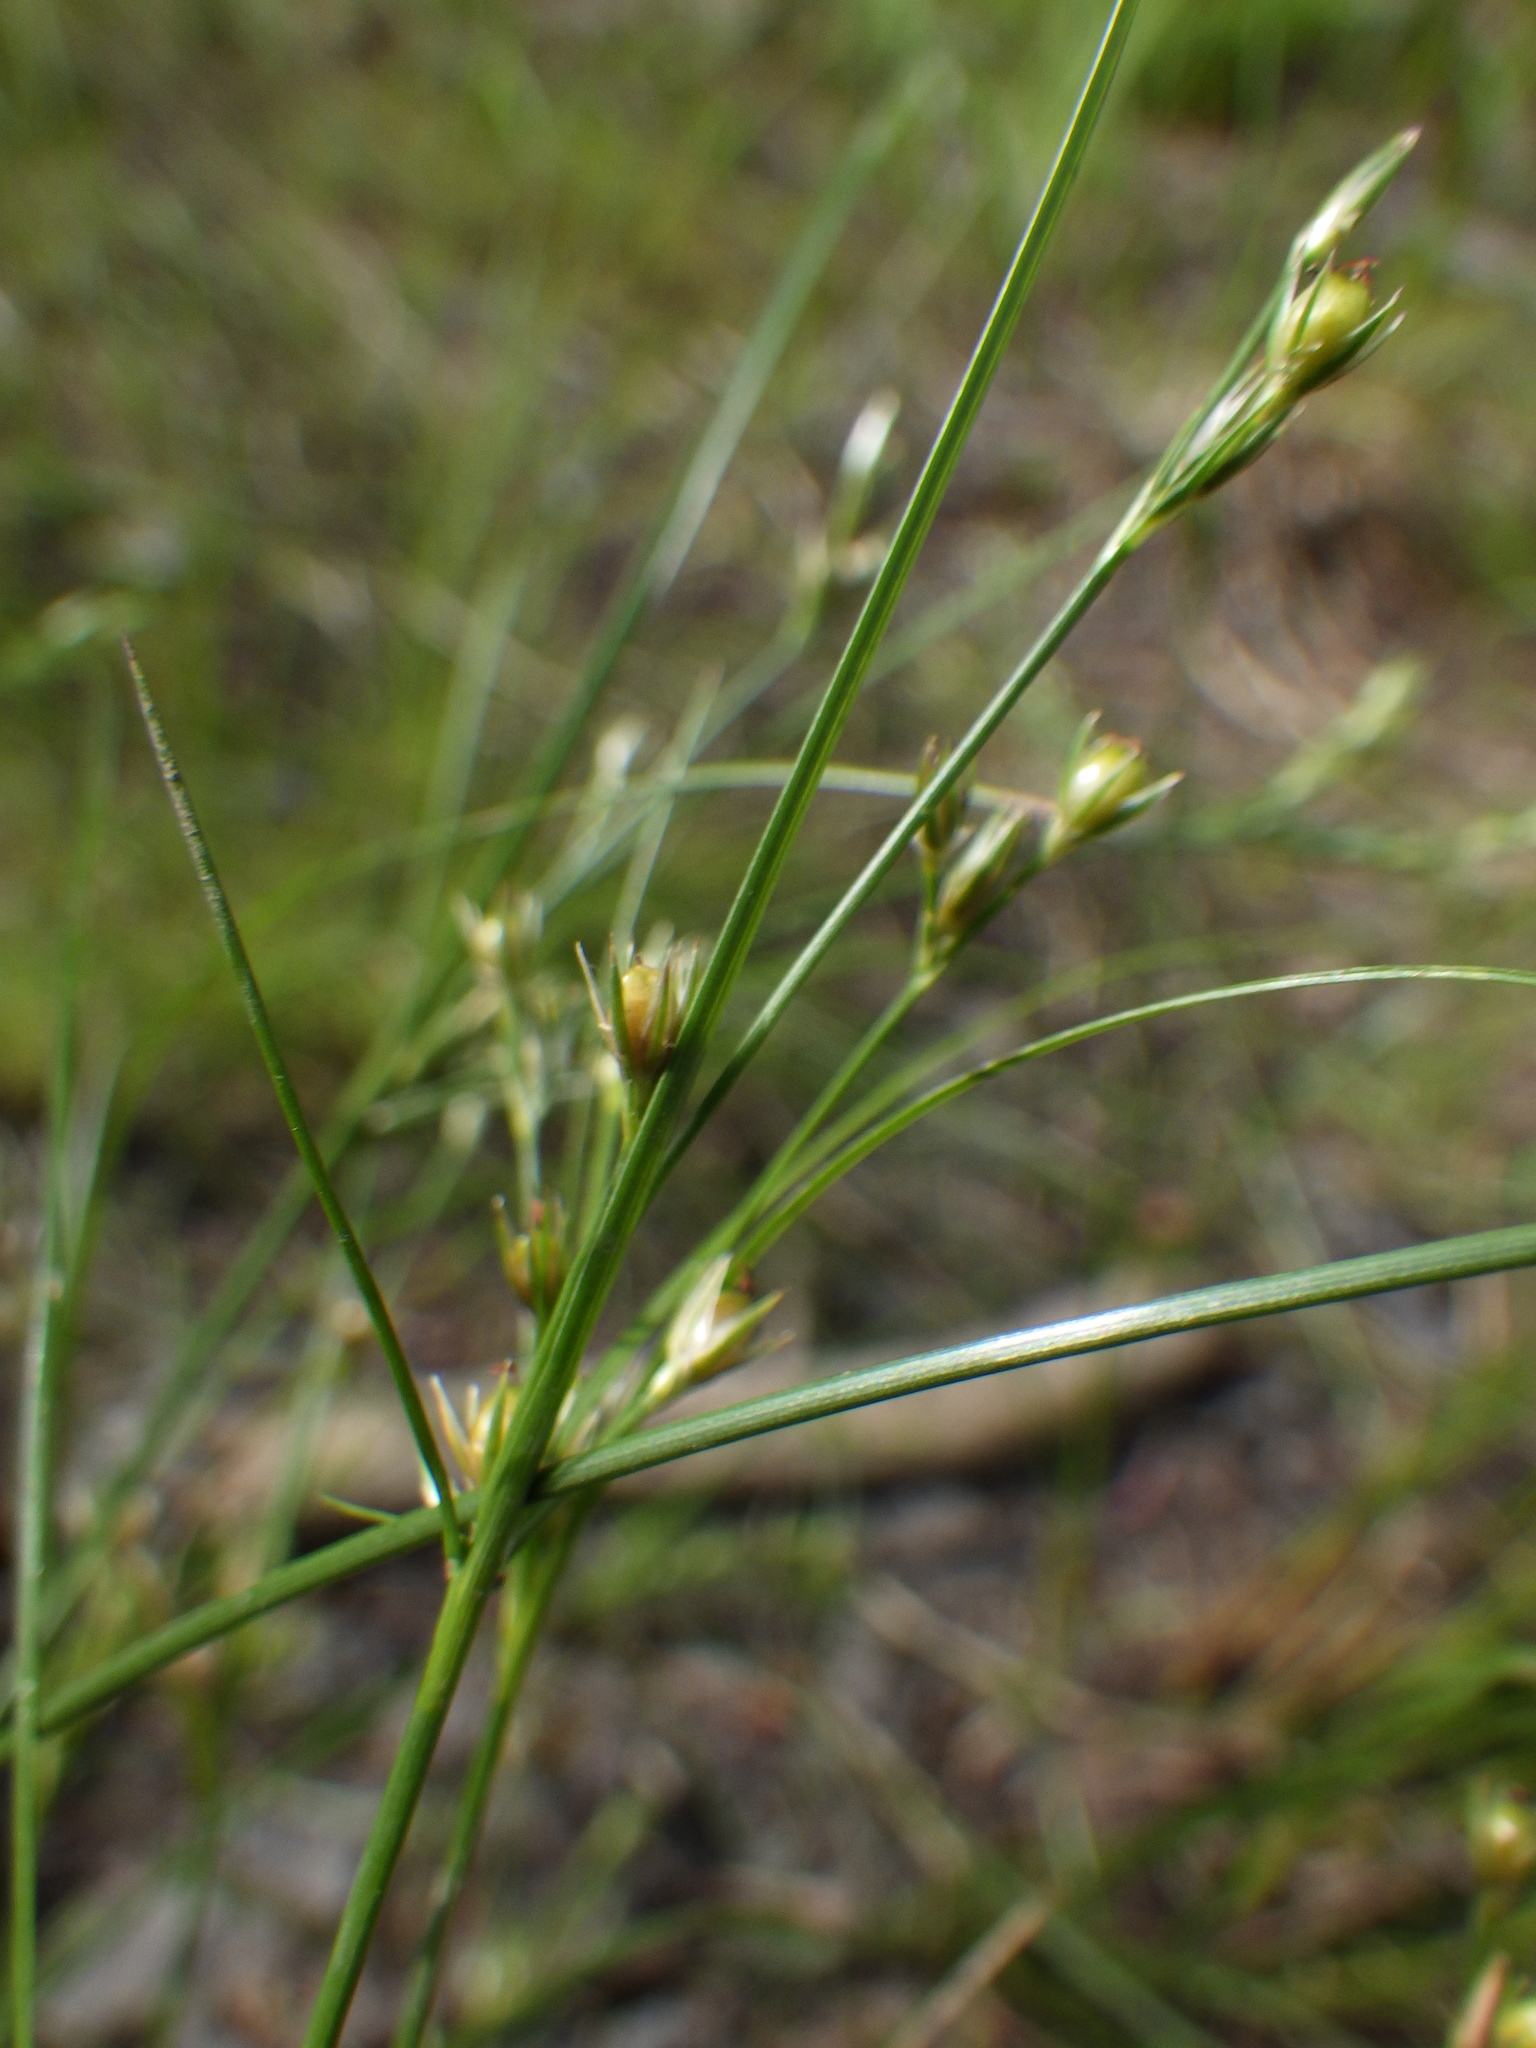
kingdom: Plantae
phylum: Tracheophyta
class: Liliopsida
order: Poales
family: Juncaceae
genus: Juncus
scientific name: Juncus tenuis
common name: Slender rush
